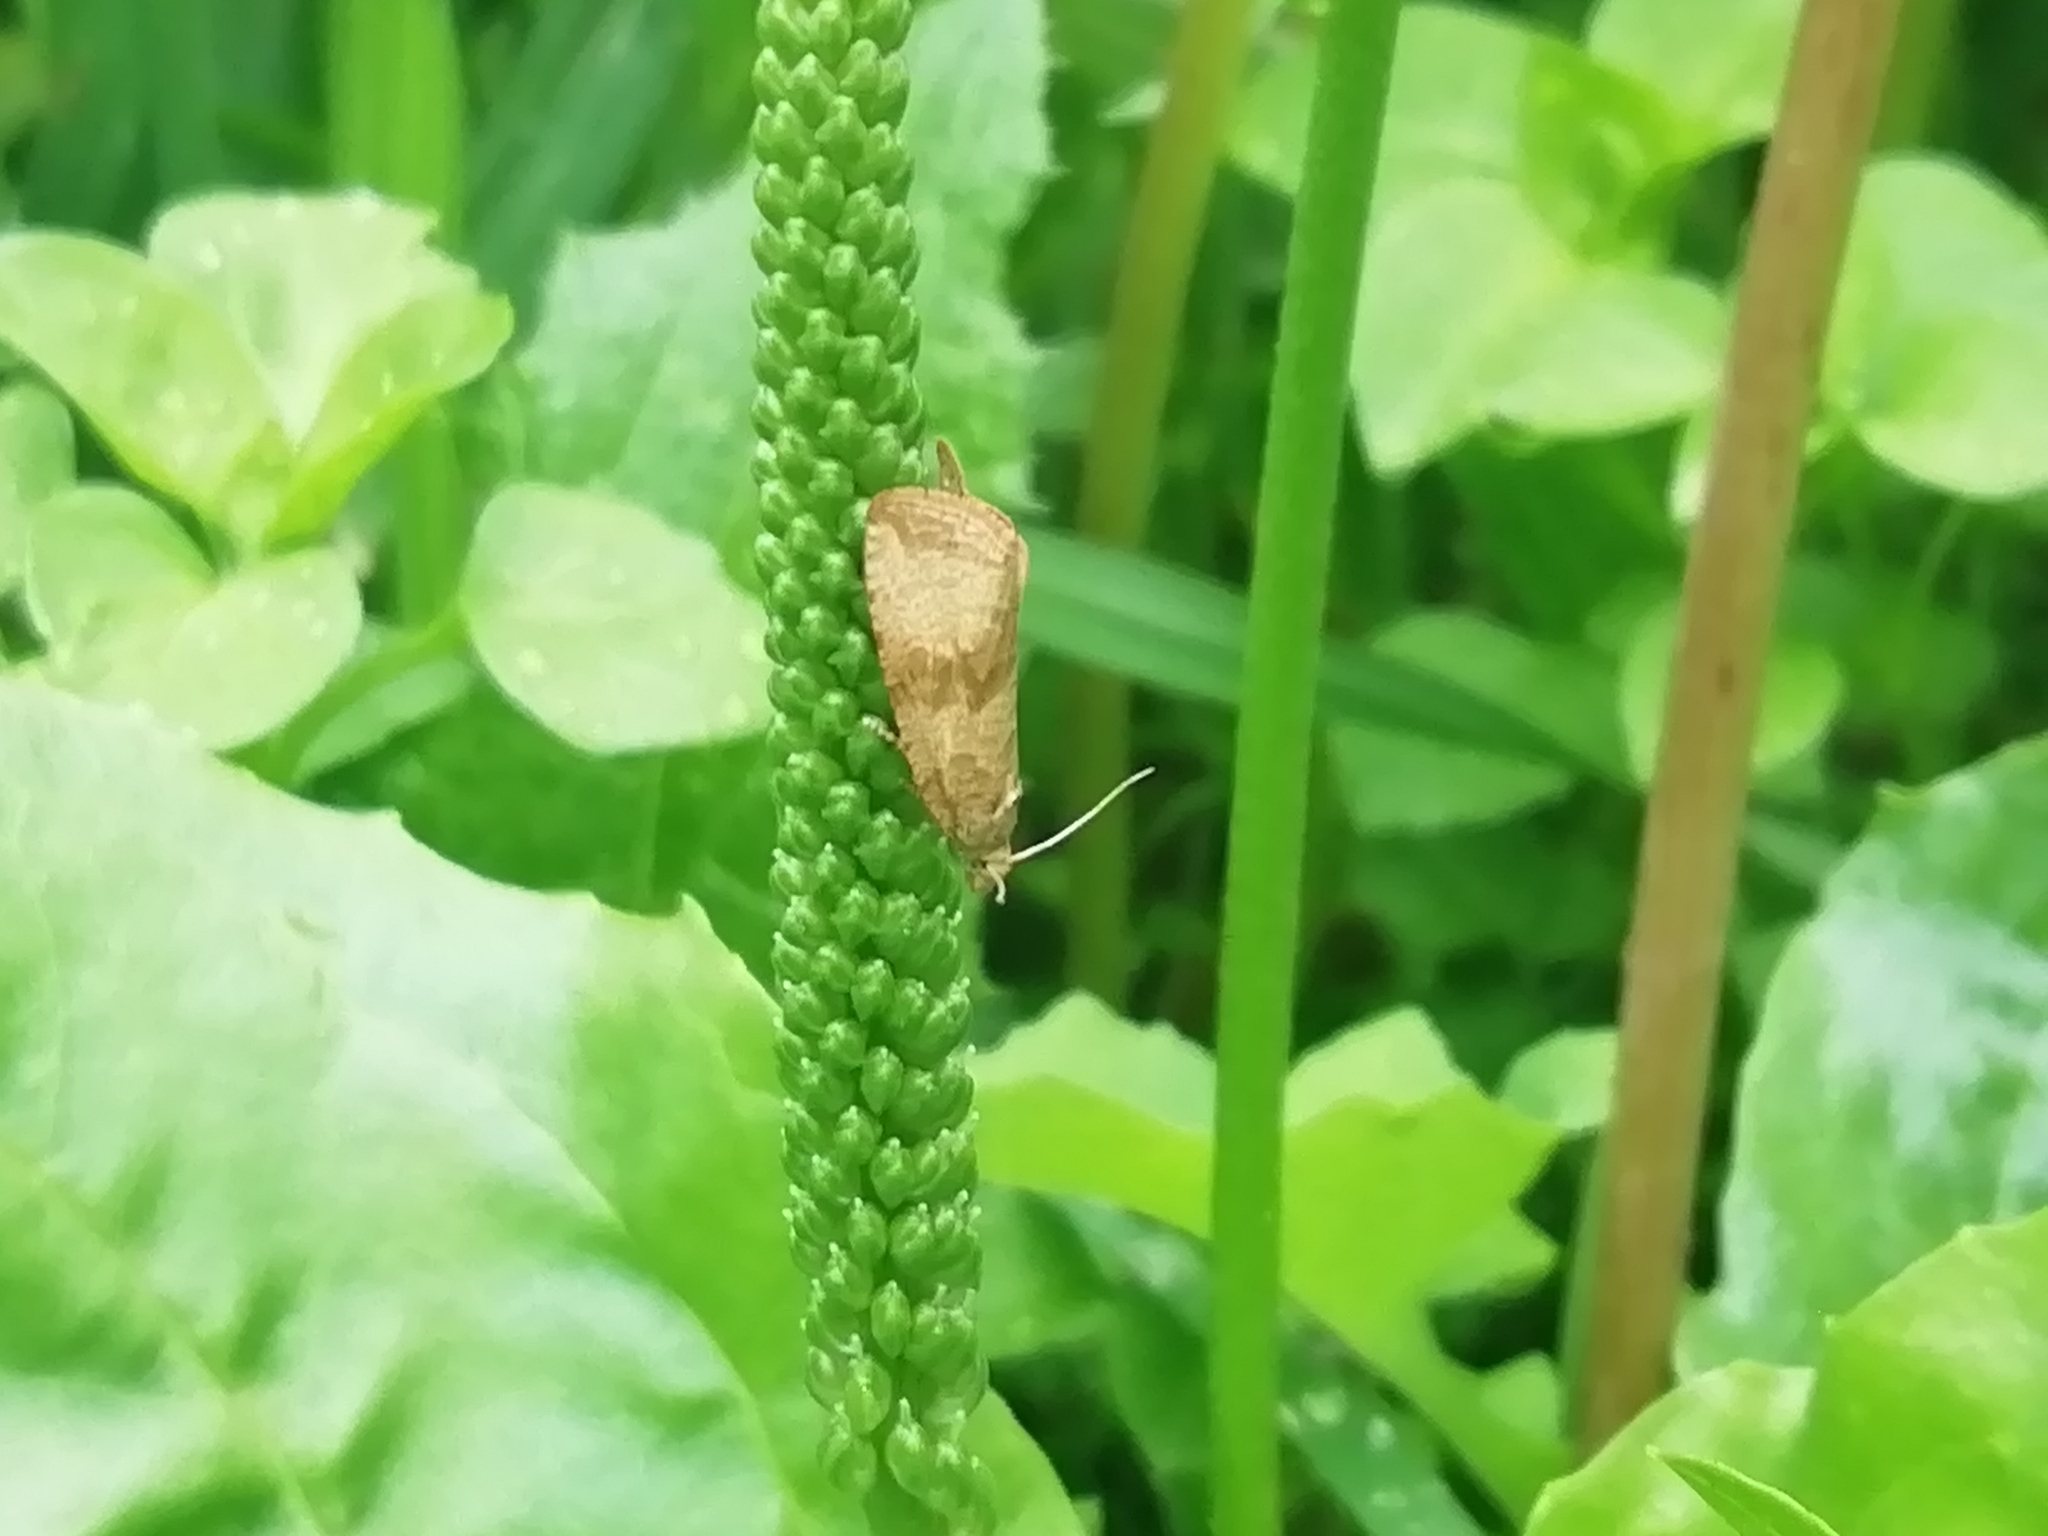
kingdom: Animalia
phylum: Arthropoda
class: Insecta
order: Lepidoptera
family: Tortricidae
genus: Celypha
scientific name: Celypha striana
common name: Barred marble
